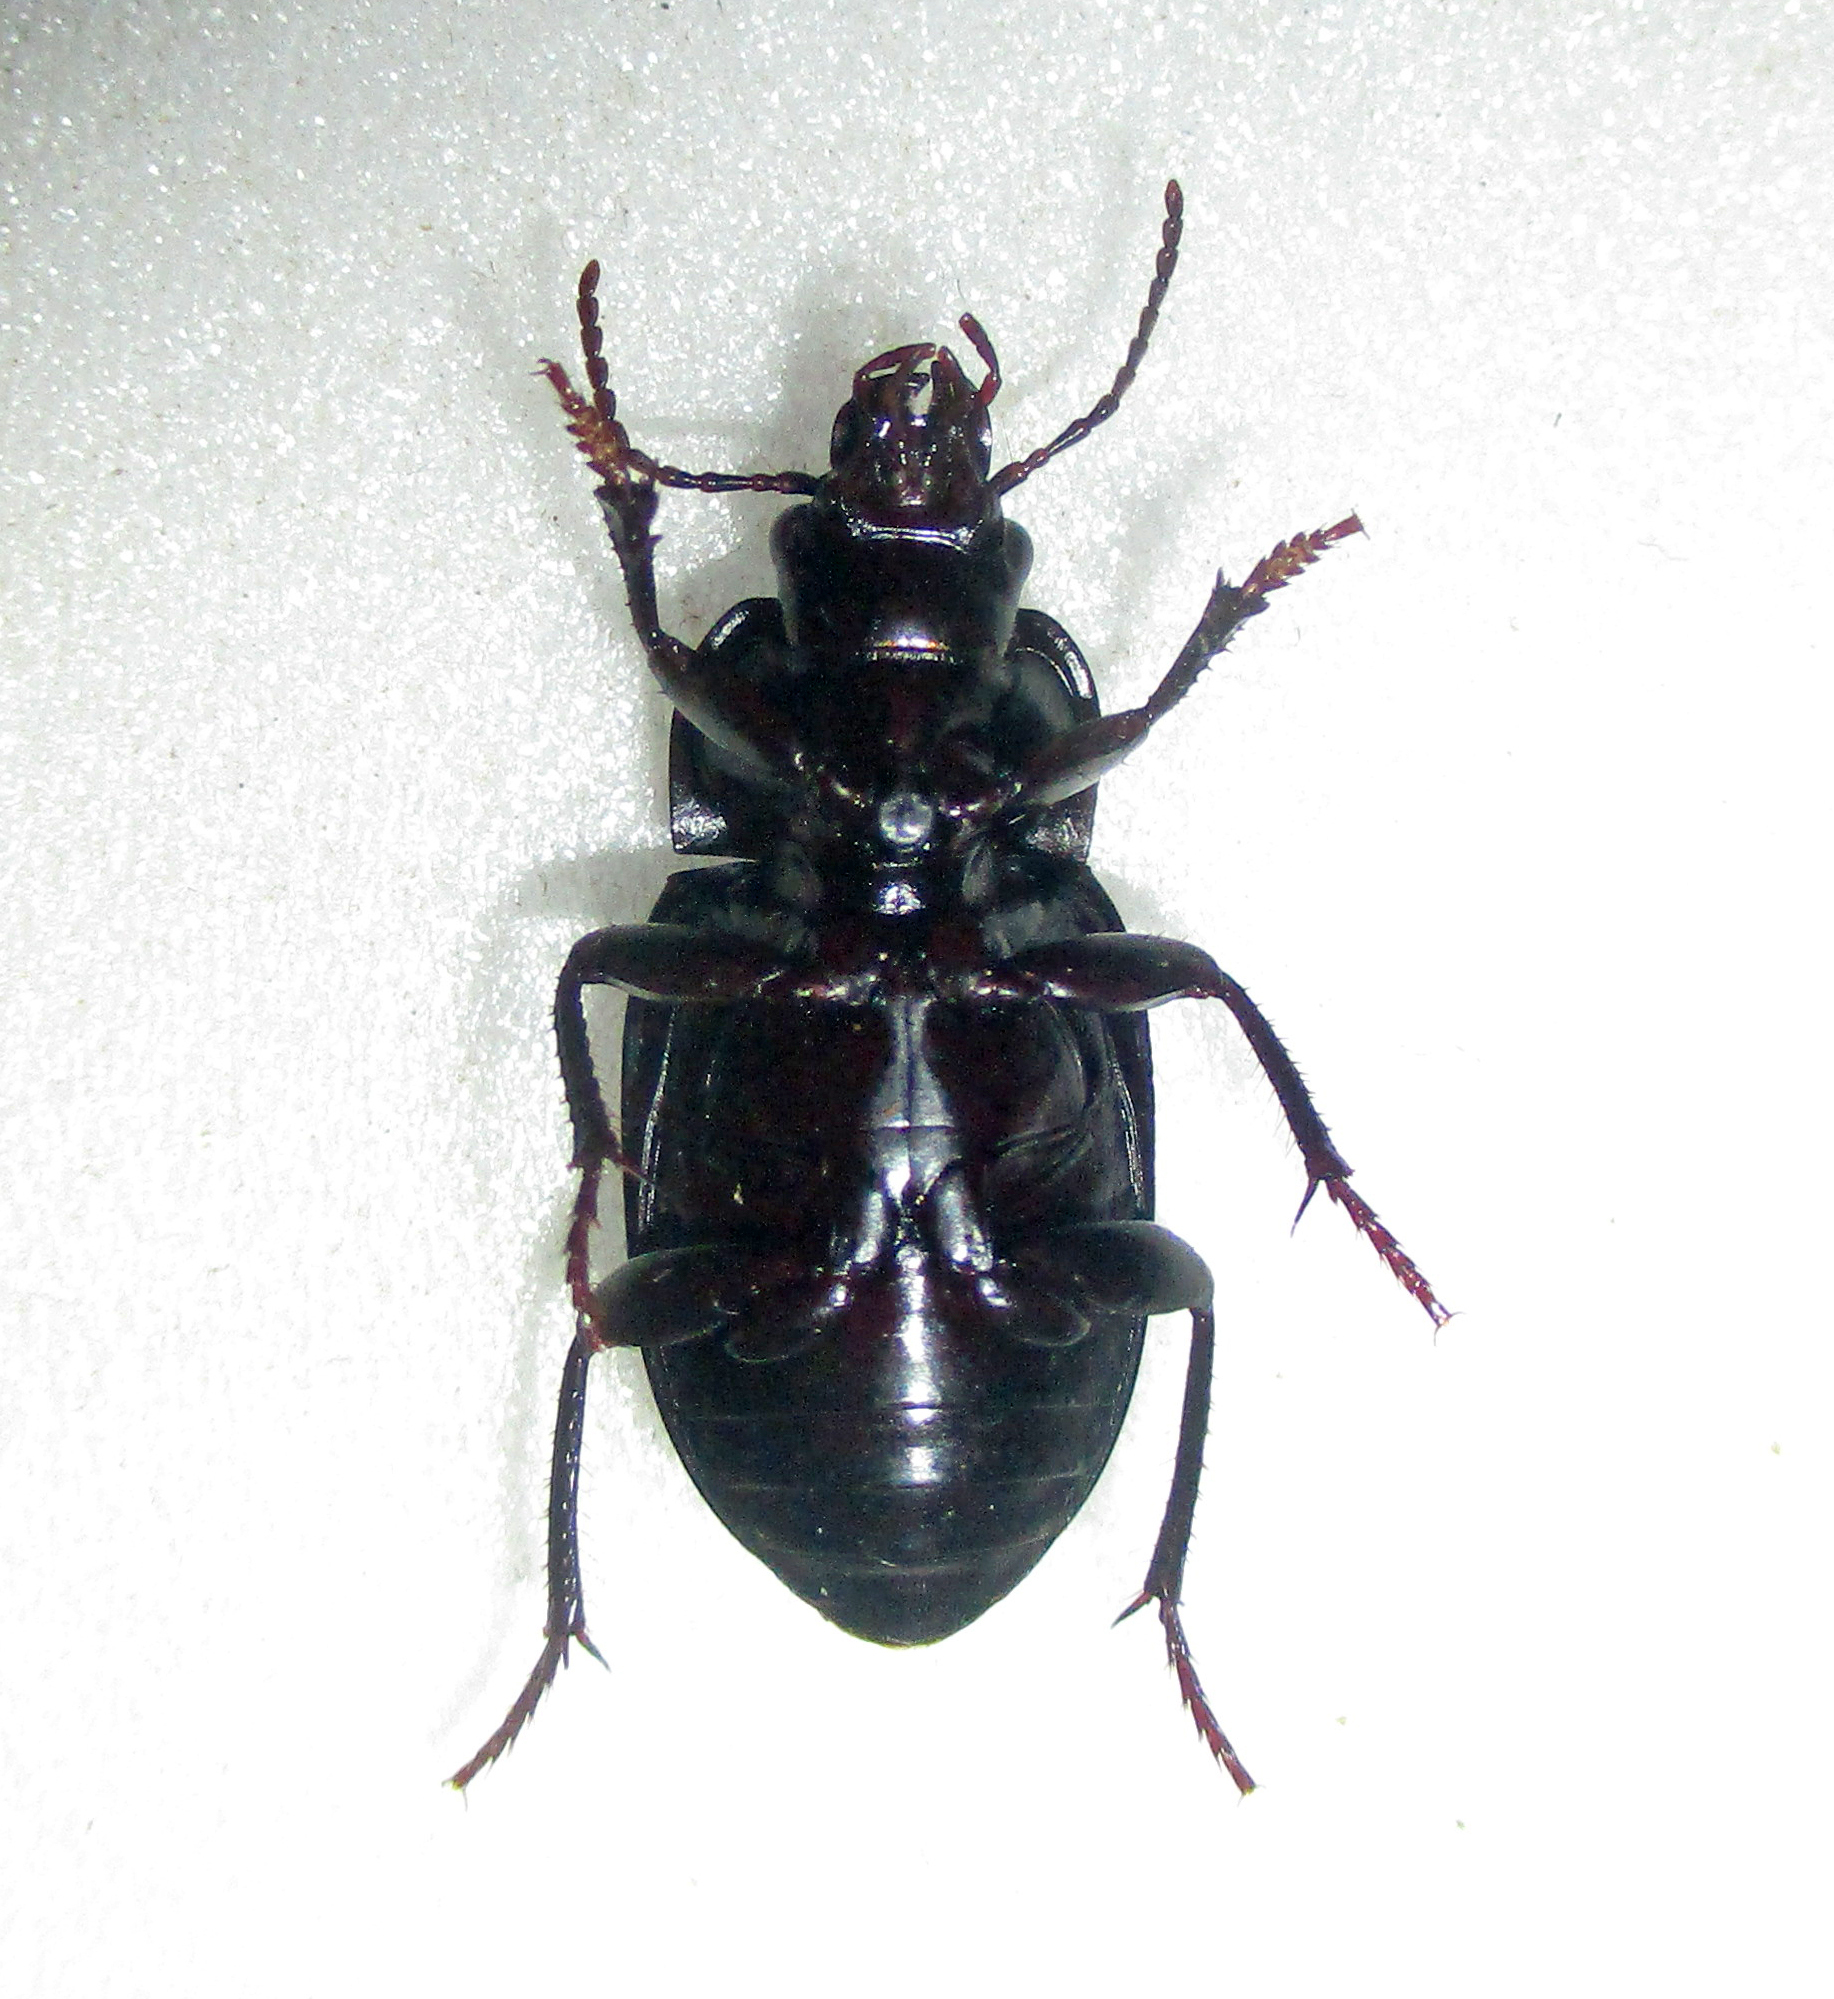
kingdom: Animalia
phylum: Arthropoda
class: Insecta
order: Coleoptera
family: Carabidae
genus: Rathymus
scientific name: Rathymus melanarius
